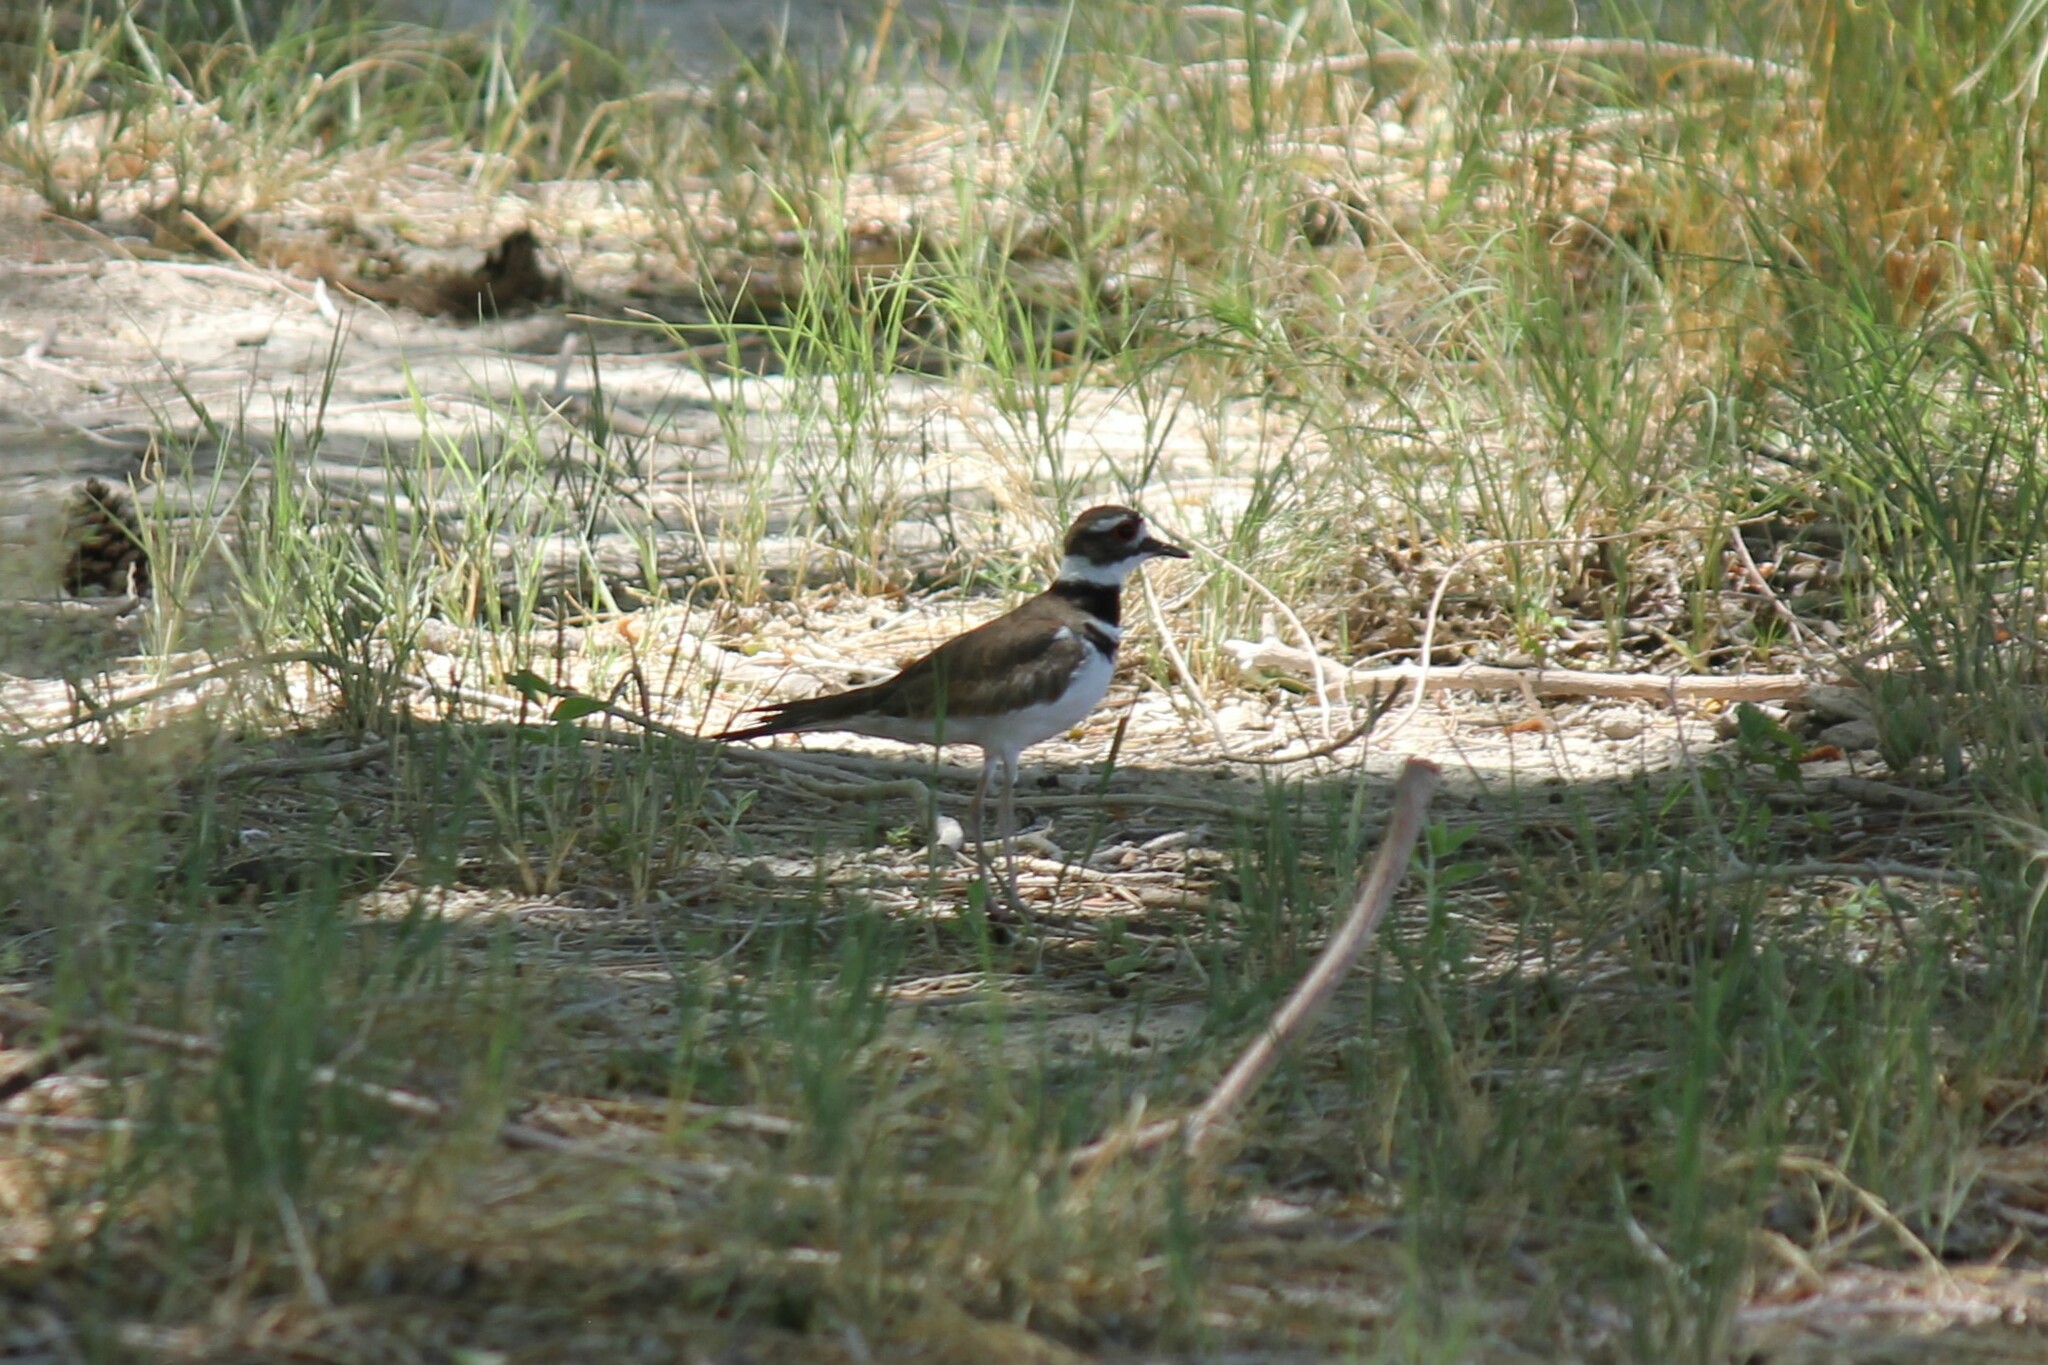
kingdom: Animalia
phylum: Chordata
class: Aves
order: Charadriiformes
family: Charadriidae
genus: Charadrius
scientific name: Charadrius vociferus
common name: Killdeer
